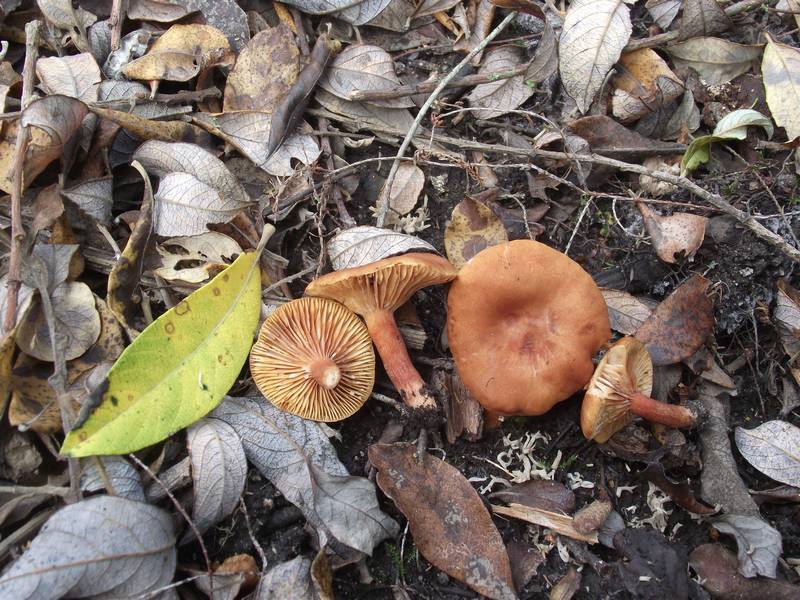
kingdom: Fungi
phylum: Basidiomycota
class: Agaricomycetes
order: Russulales
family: Russulaceae
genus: Lactarius
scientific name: Lactarius lacunarum
